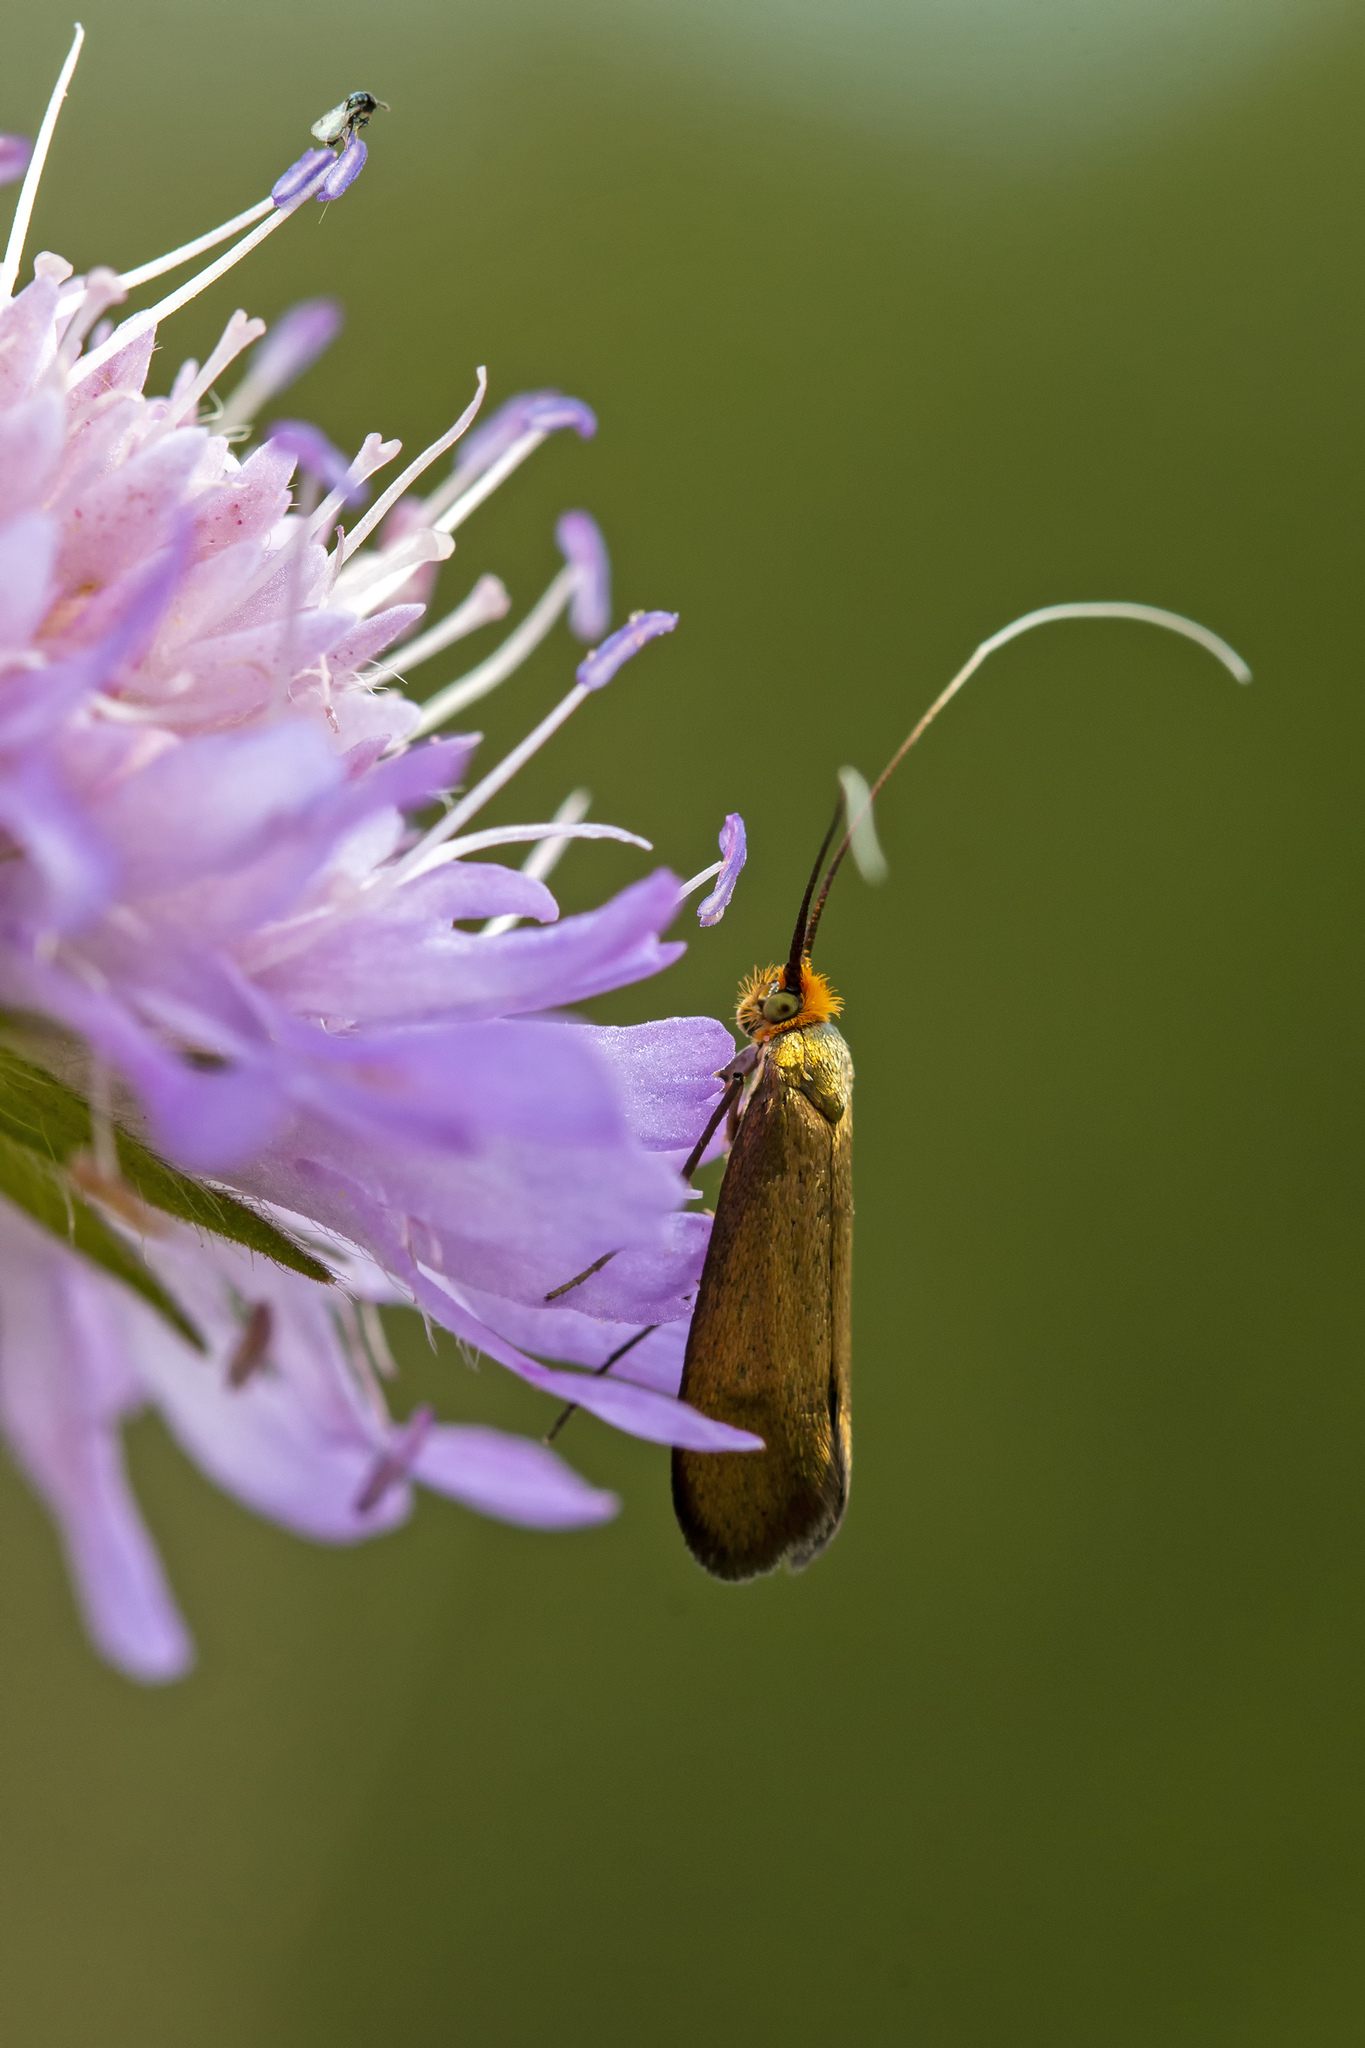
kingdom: Animalia
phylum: Arthropoda
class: Insecta
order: Lepidoptera
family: Adelidae
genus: Nemophora
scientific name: Nemophora metallica
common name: Brassy long-horn
